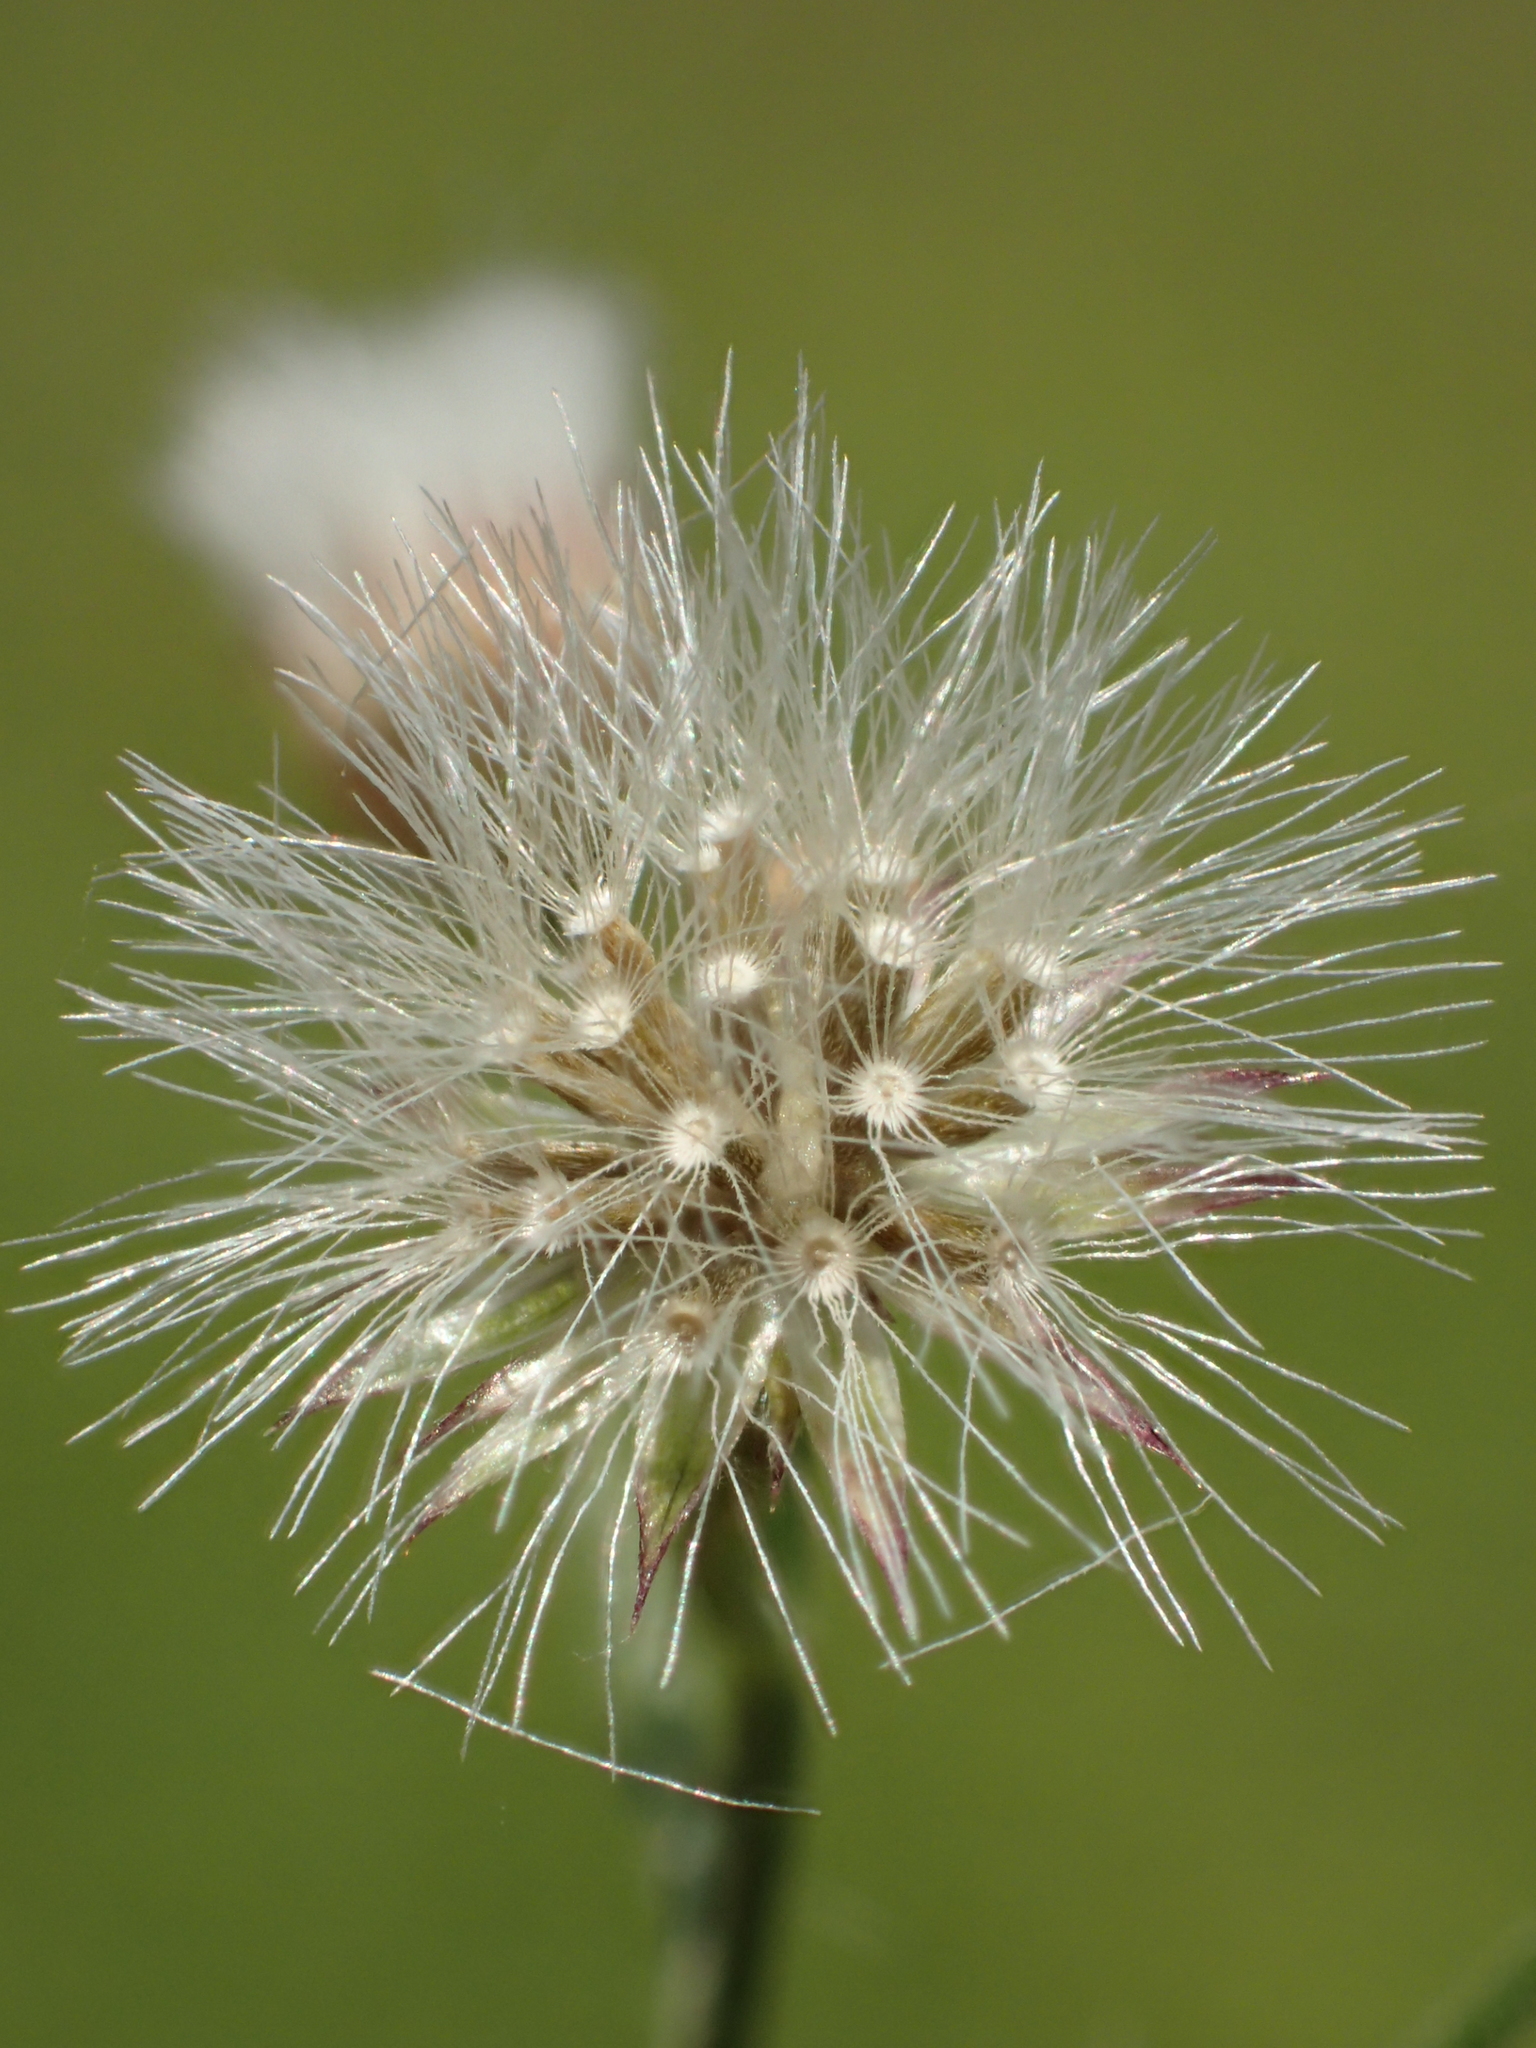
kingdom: Plantae
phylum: Tracheophyta
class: Magnoliopsida
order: Asterales
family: Asteraceae
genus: Cyanthillium
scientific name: Cyanthillium cinereum
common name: Little ironweed
